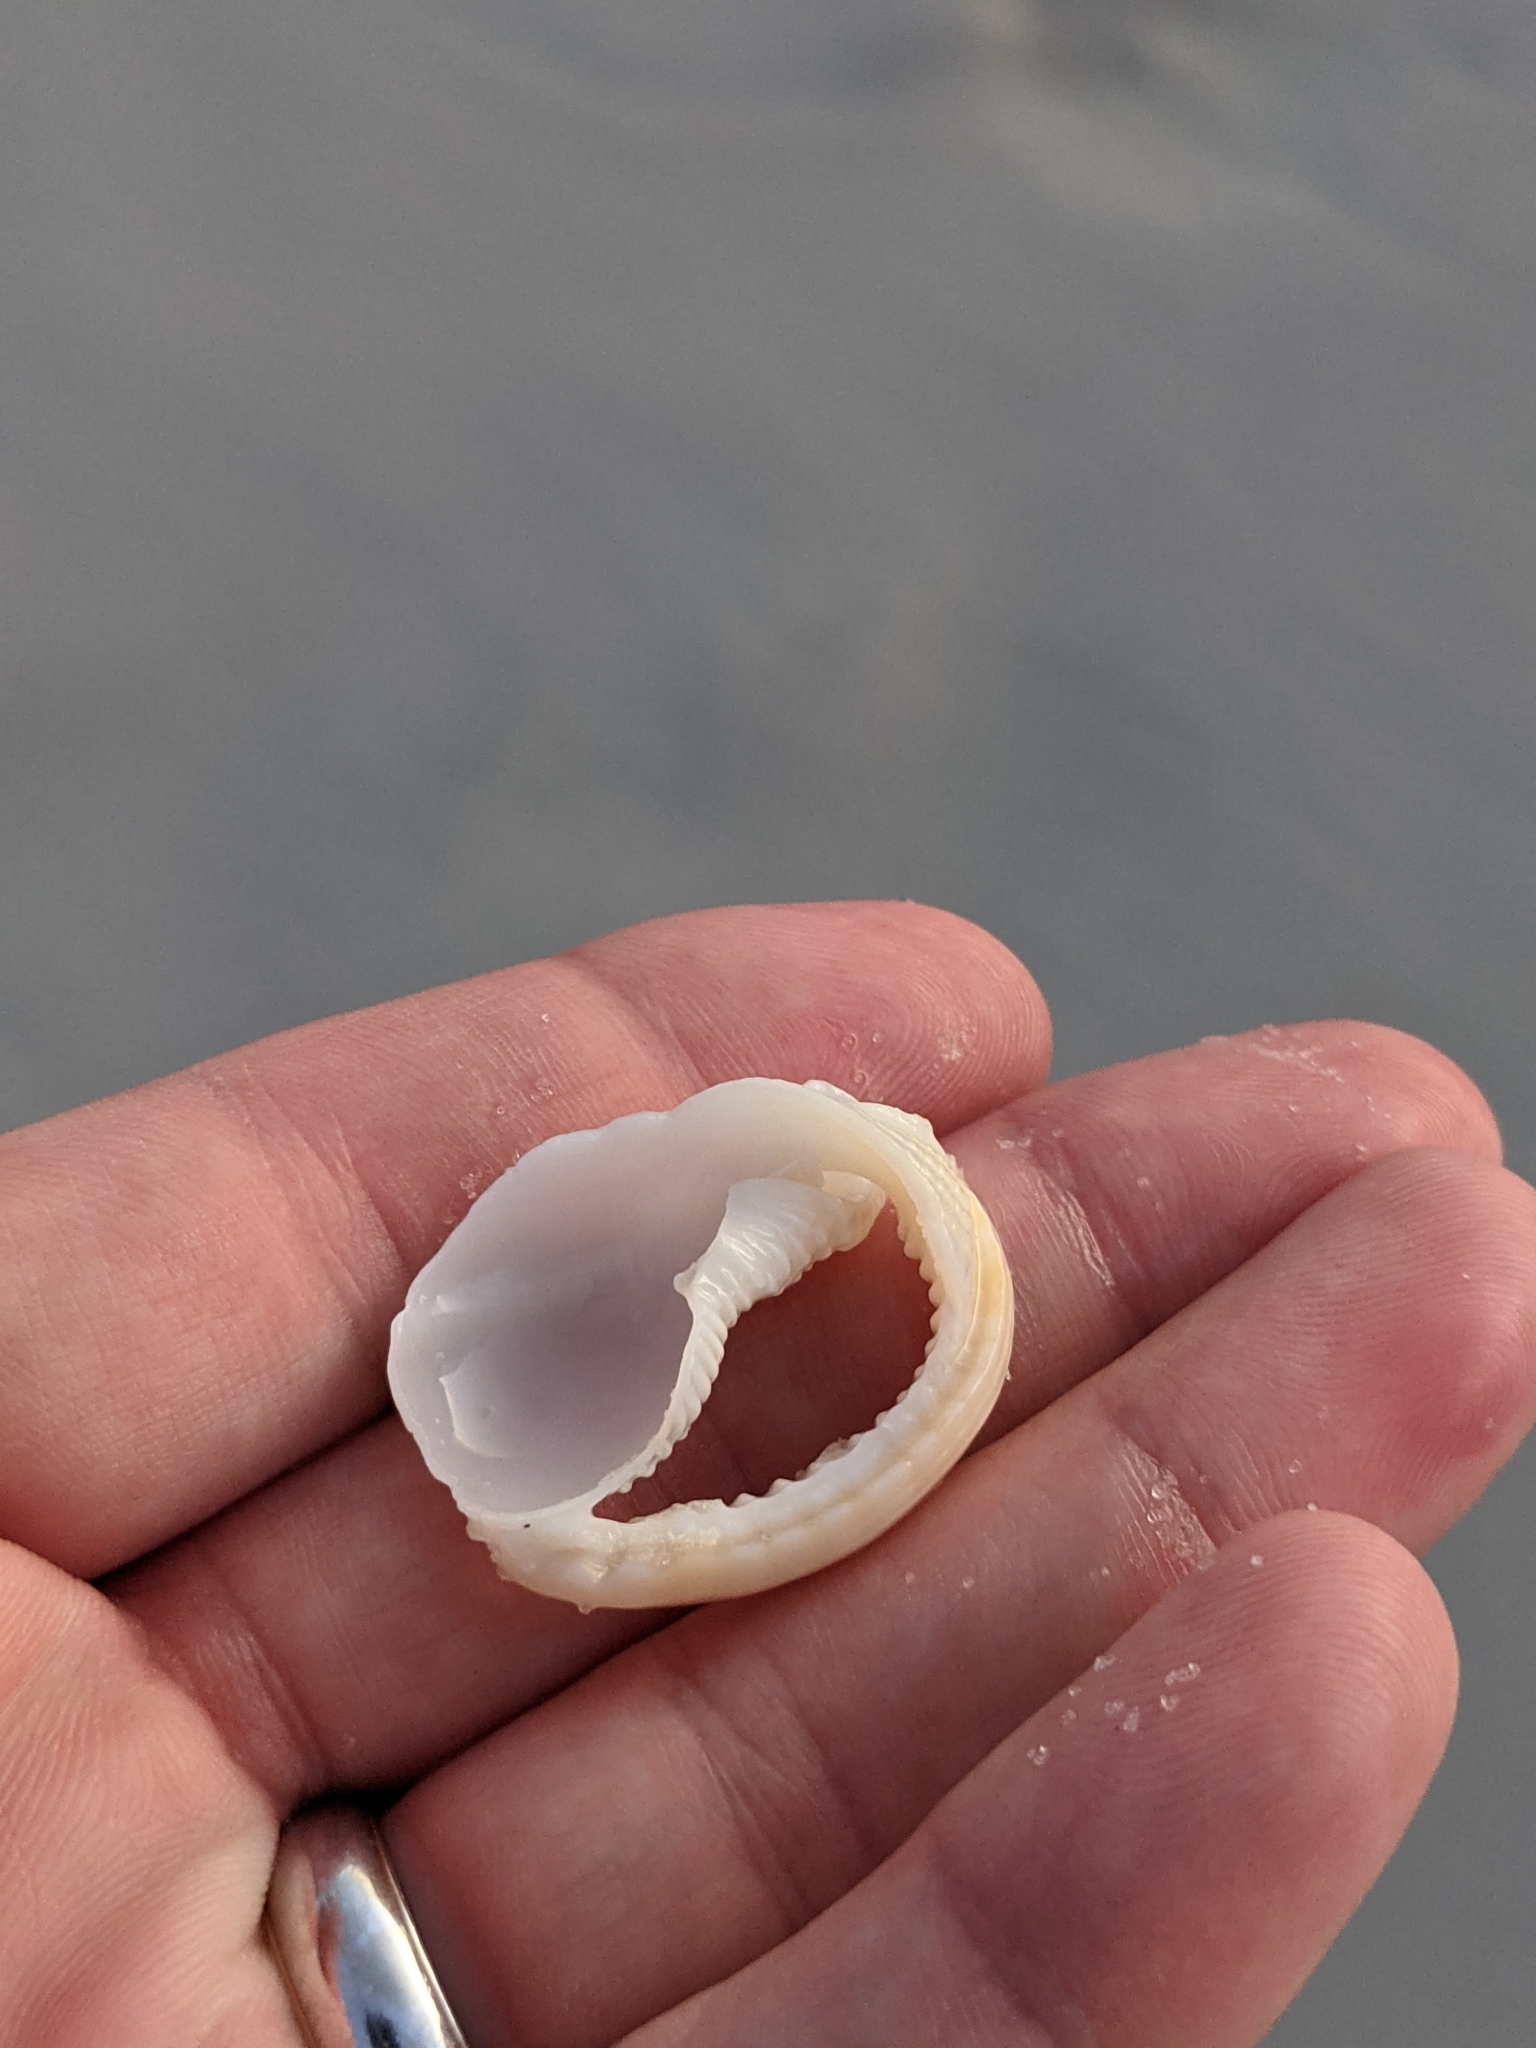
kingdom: Animalia
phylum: Mollusca
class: Gastropoda
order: Littorinimorpha
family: Cassidae
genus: Semicassis
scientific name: Semicassis granulata
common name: Scotch bonnet
